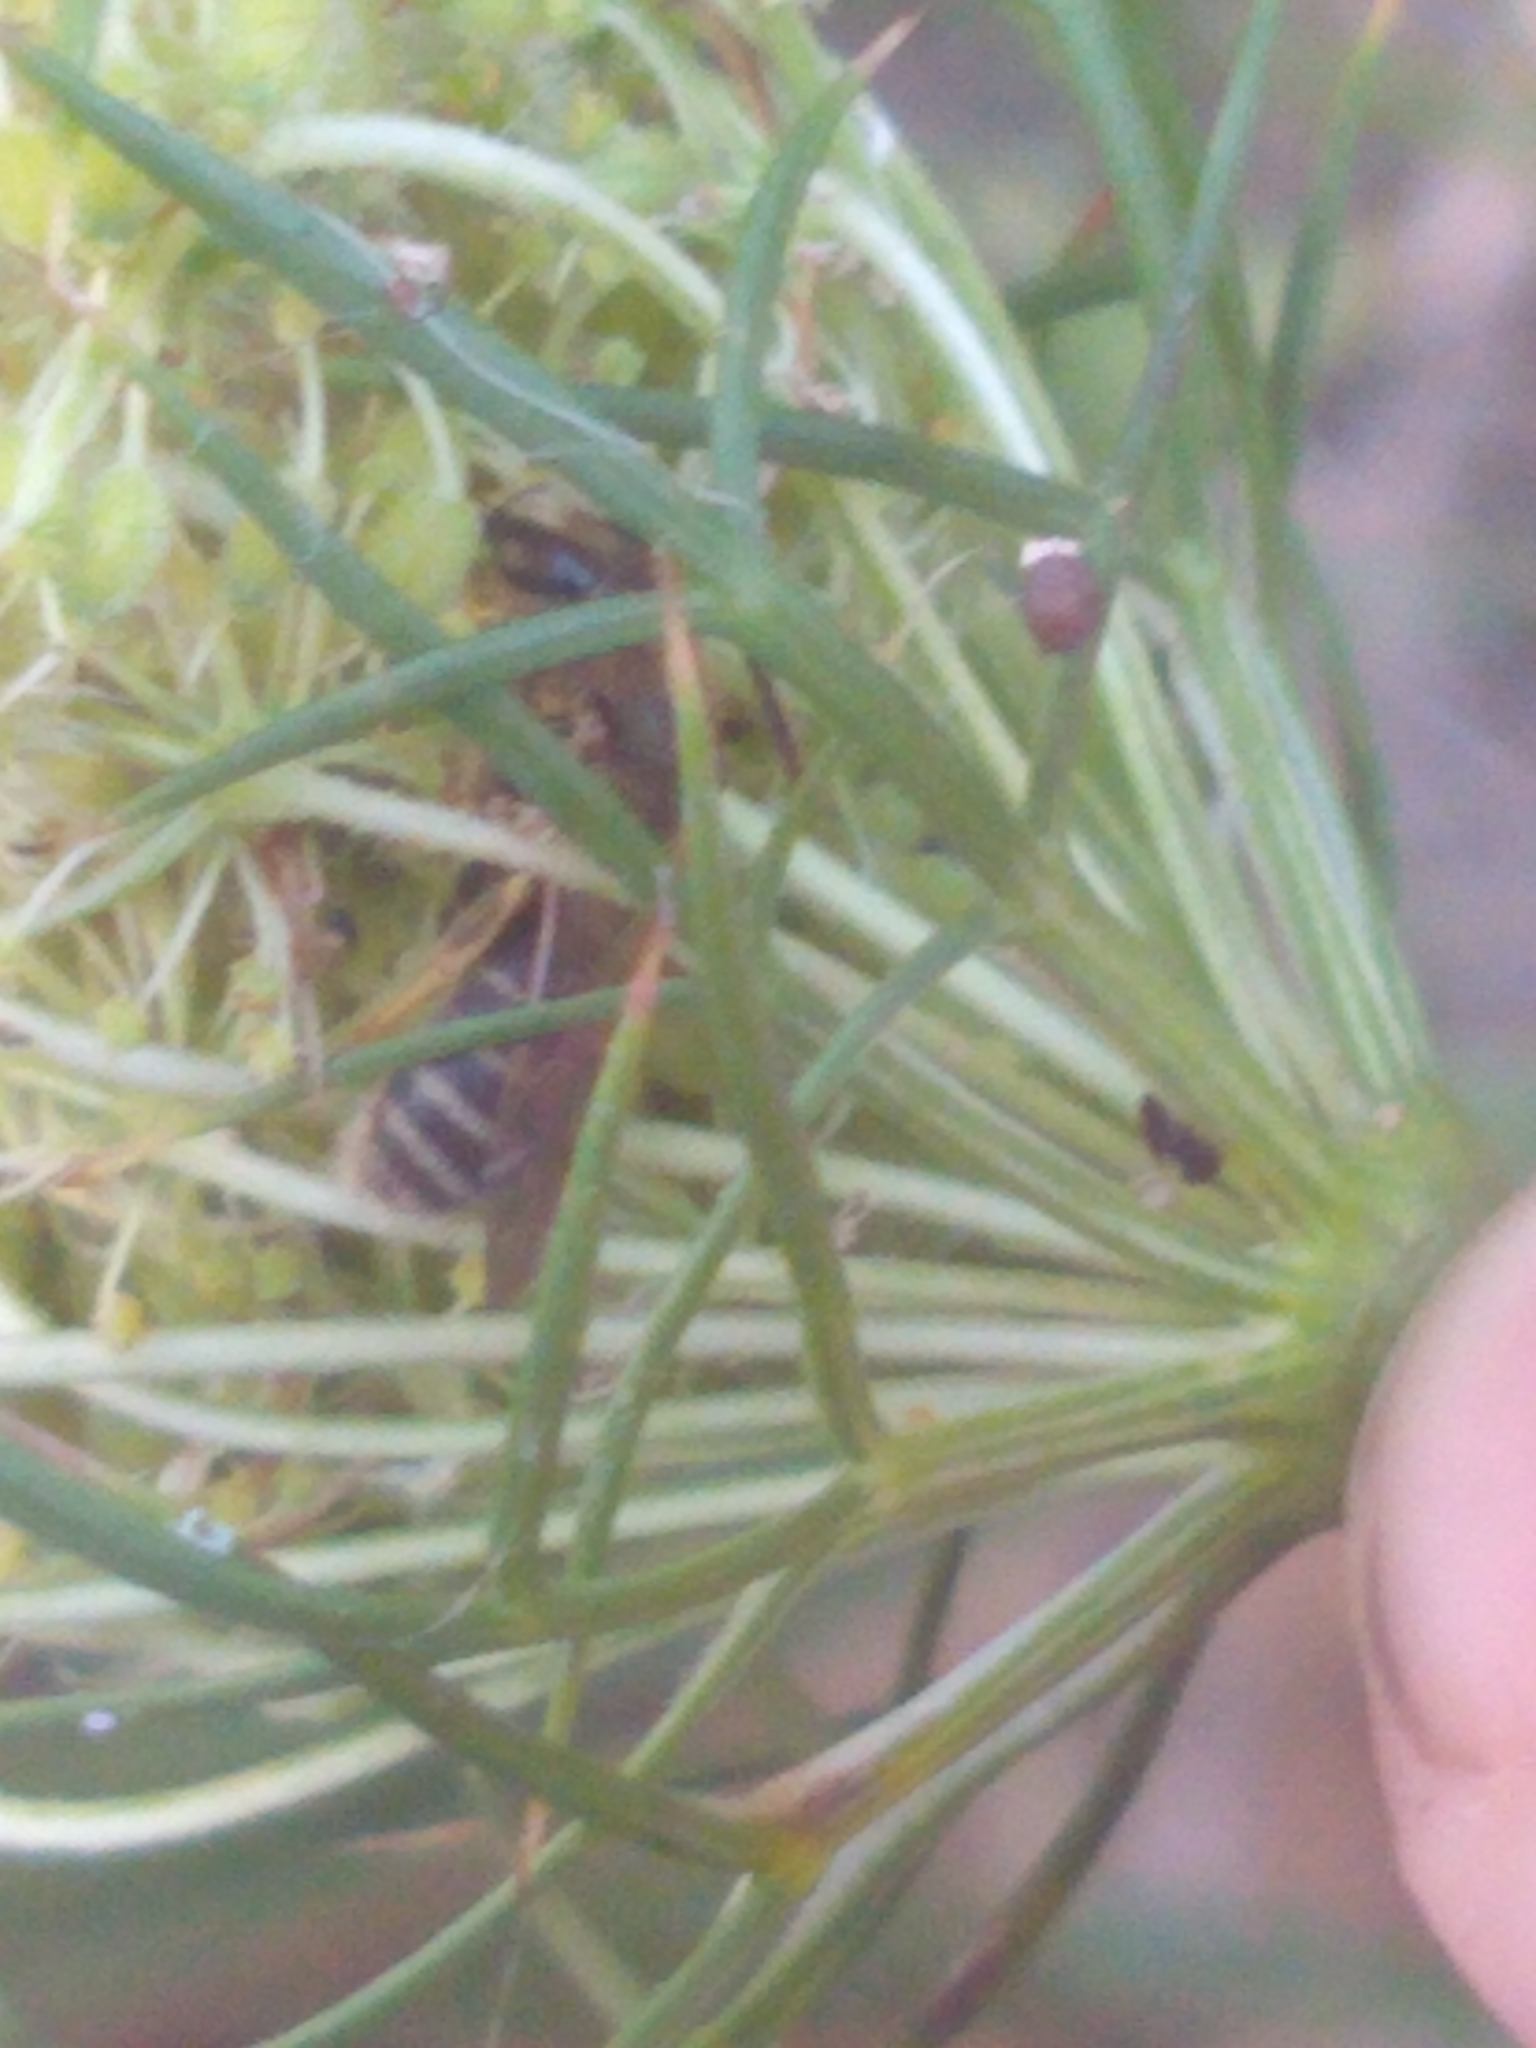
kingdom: Animalia
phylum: Arthropoda
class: Insecta
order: Hymenoptera
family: Halictidae
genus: Halictus
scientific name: Halictus ligatus
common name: Ligated furrow bee
